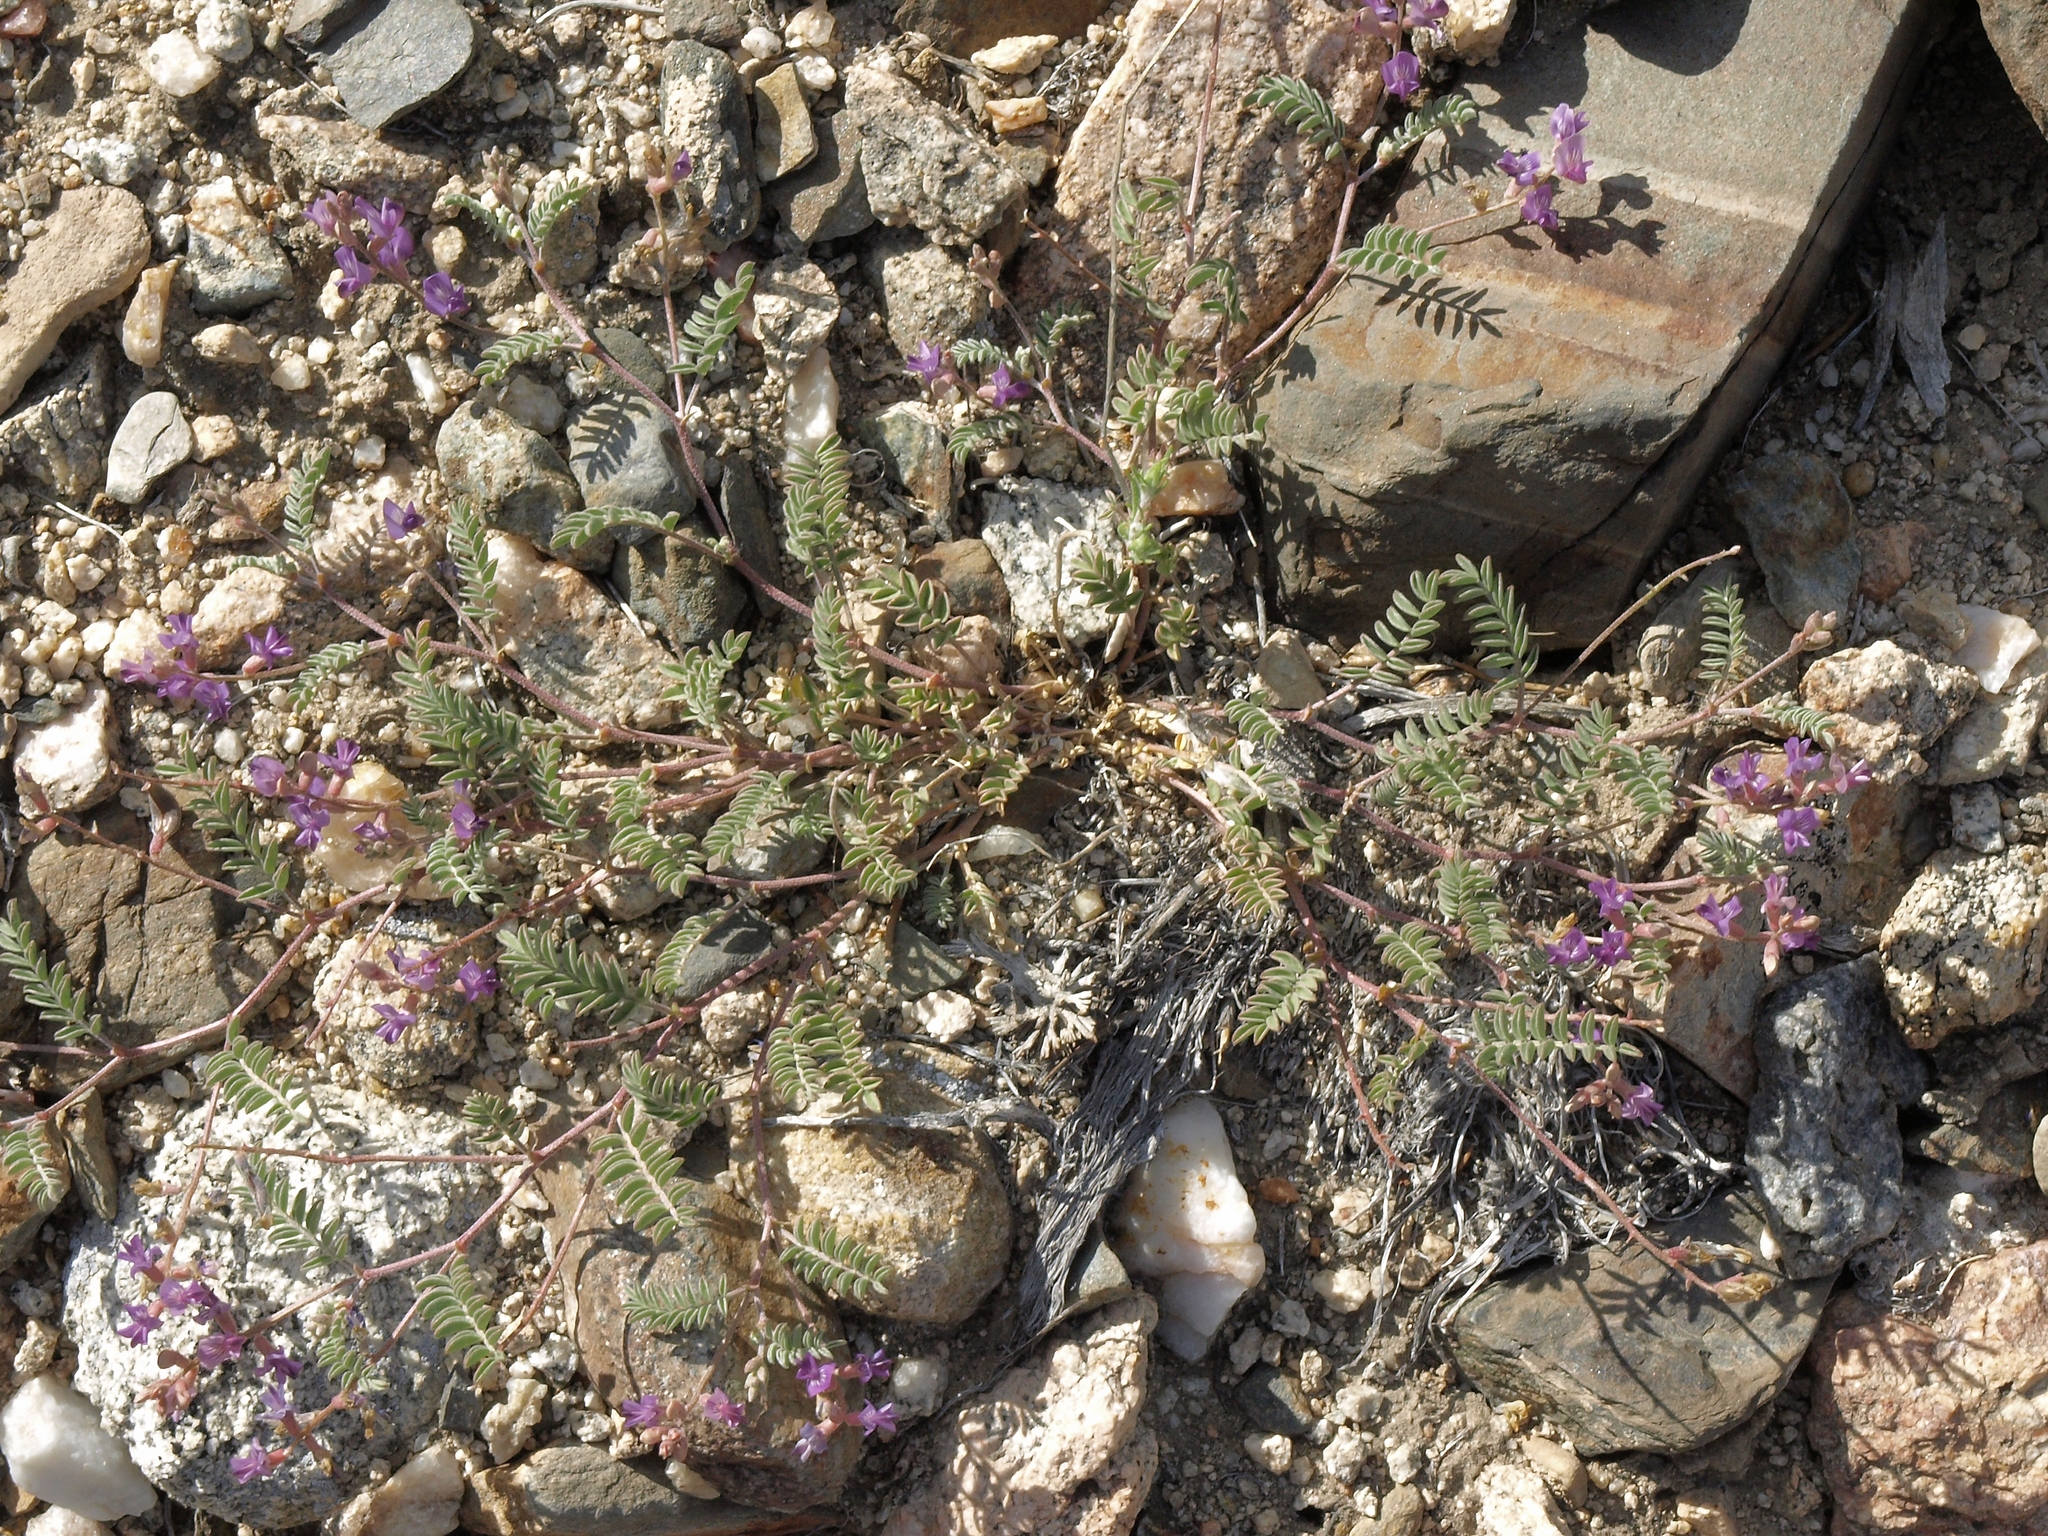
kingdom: Plantae
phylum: Tracheophyta
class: Magnoliopsida
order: Fabales
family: Fabaceae
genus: Astragalus
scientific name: Astragalus inyoensis
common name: Inyo locoweed
